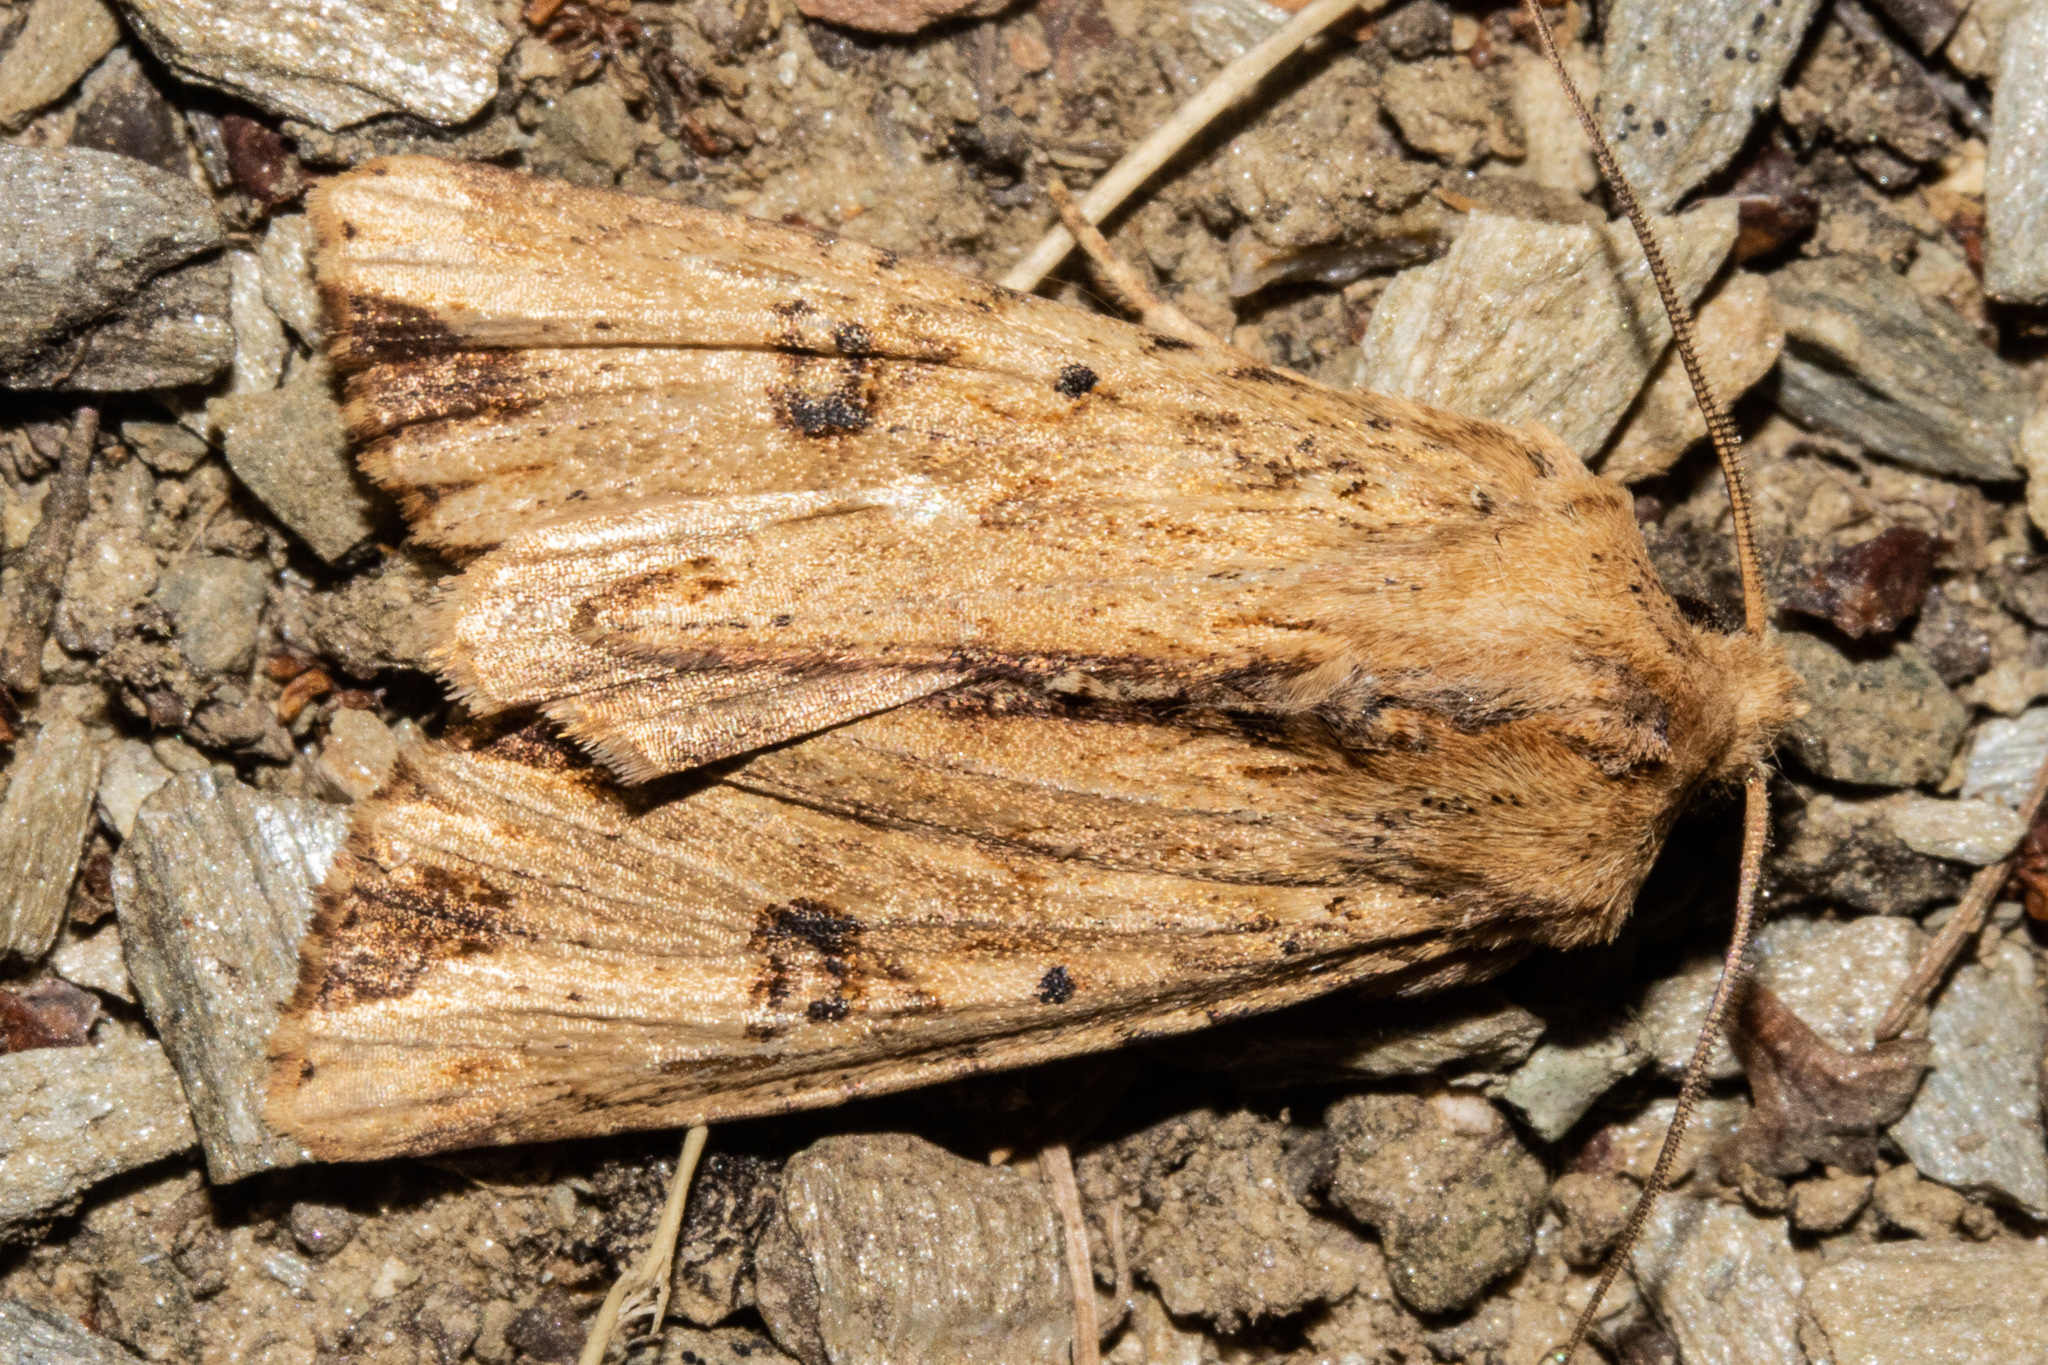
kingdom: Animalia
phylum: Arthropoda
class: Insecta
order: Lepidoptera
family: Noctuidae
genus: Ichneutica
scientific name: Ichneutica
